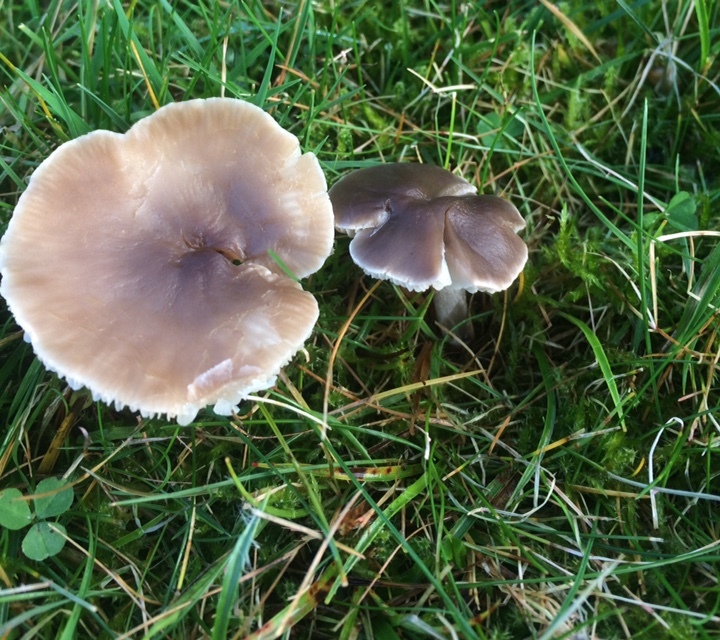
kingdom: Fungi
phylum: Basidiomycota
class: Agaricomycetes
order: Agaricales
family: Tricholomataceae
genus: Dermoloma
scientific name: Dermoloma cuneifolium
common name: Crazed cap
